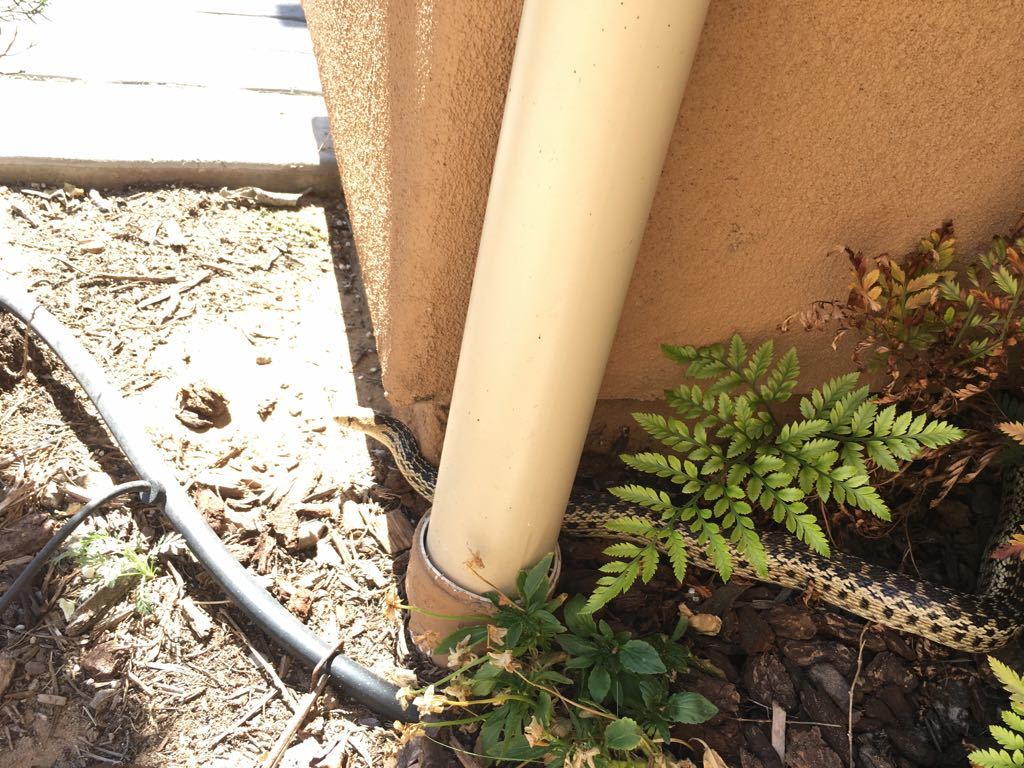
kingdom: Animalia
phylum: Chordata
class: Squamata
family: Colubridae
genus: Pituophis
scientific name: Pituophis catenifer
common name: Gopher snake
